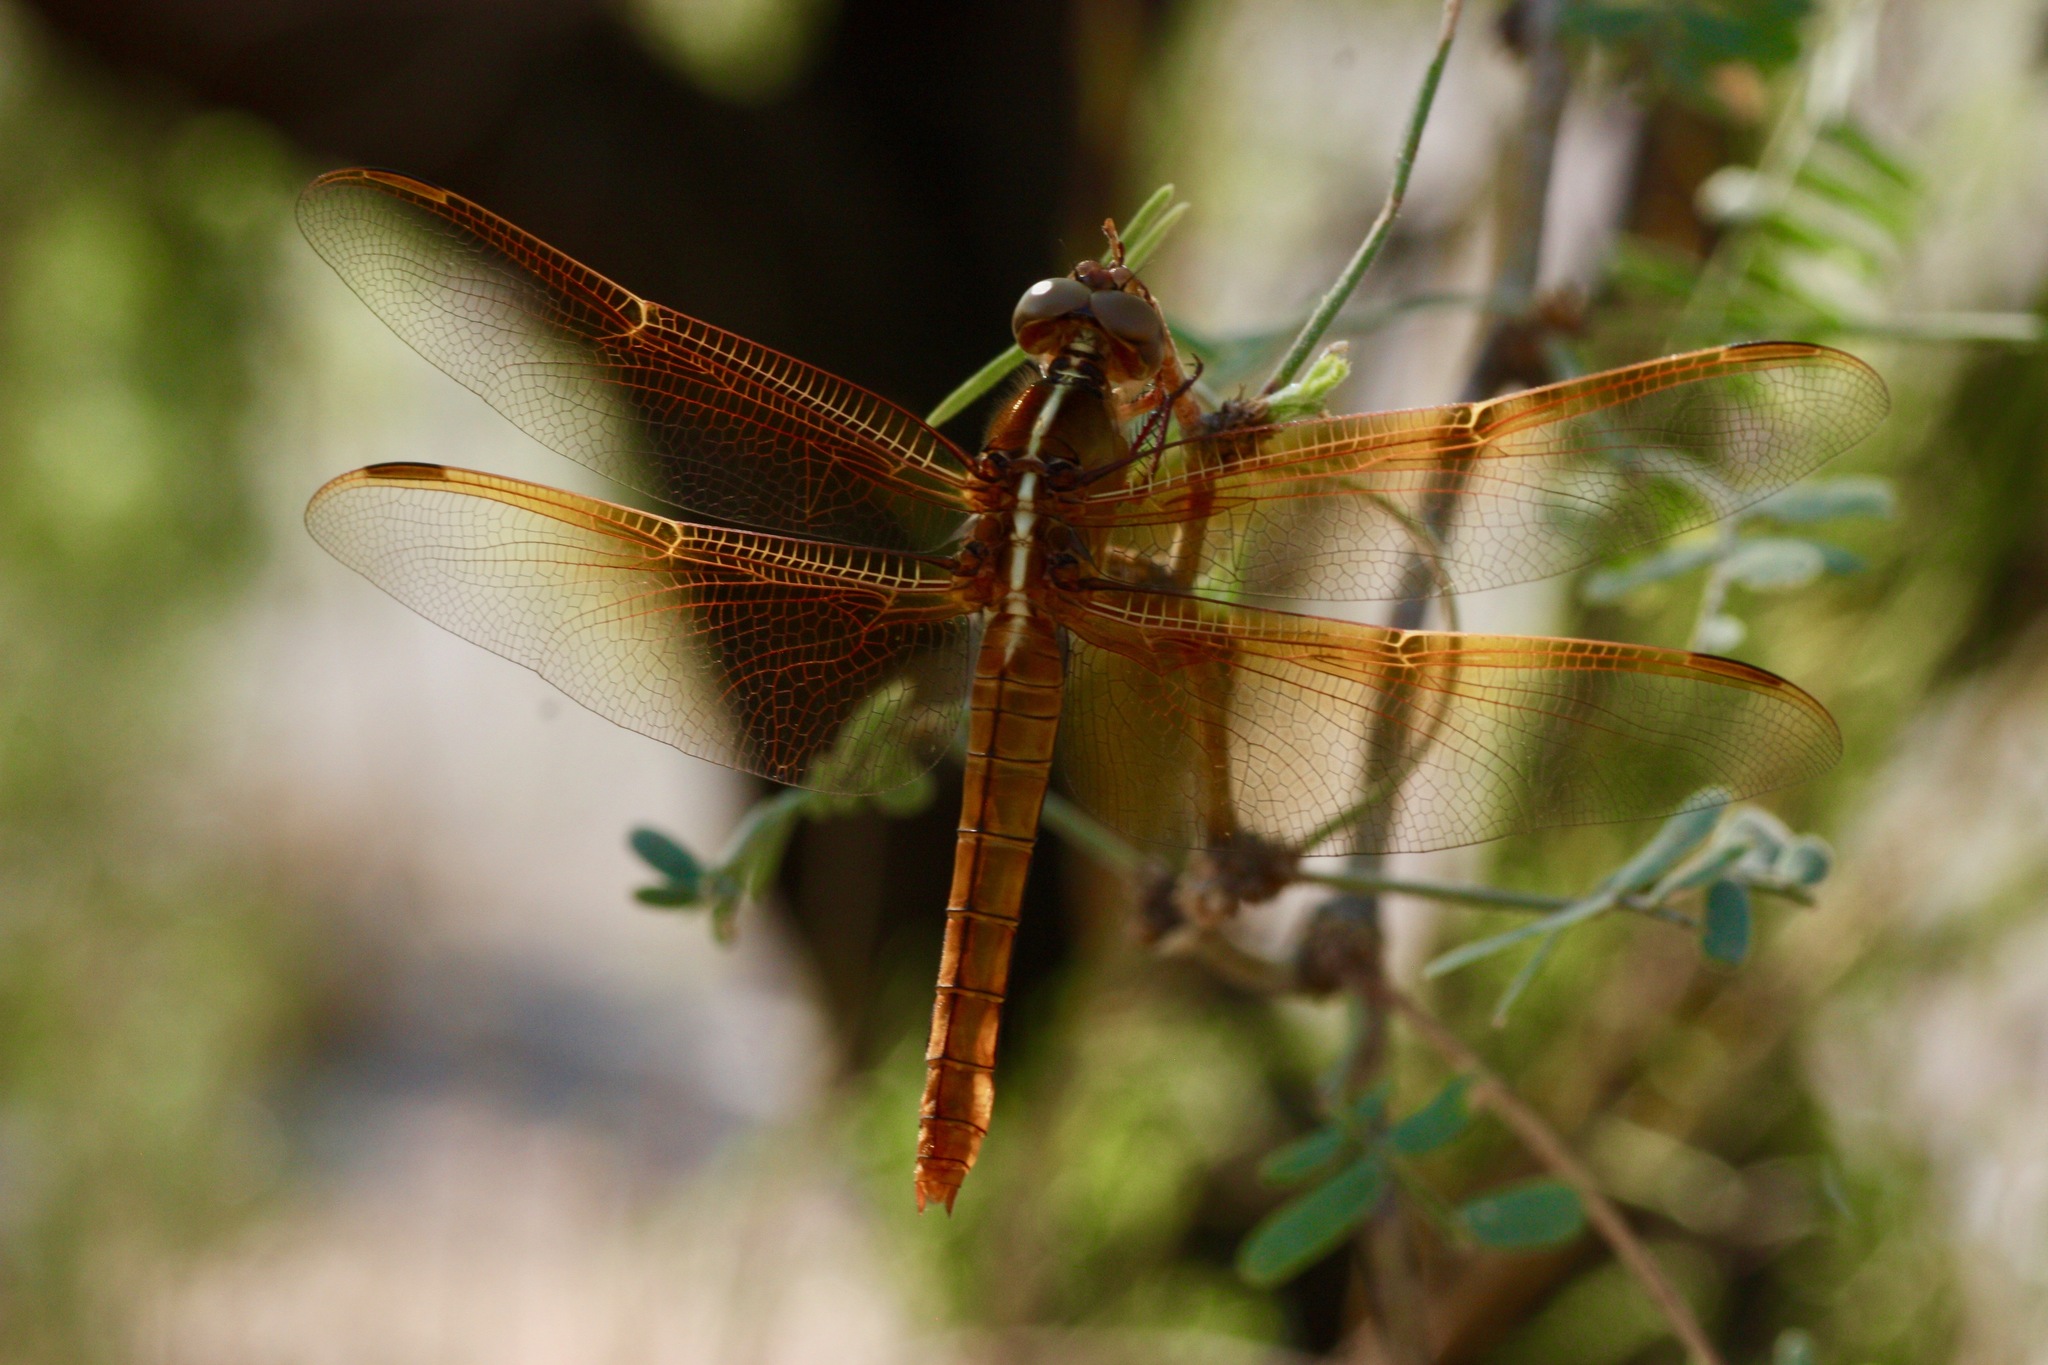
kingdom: Animalia
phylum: Arthropoda
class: Insecta
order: Odonata
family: Libellulidae
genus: Libellula
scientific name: Libellula saturata
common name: Flame skimmer
